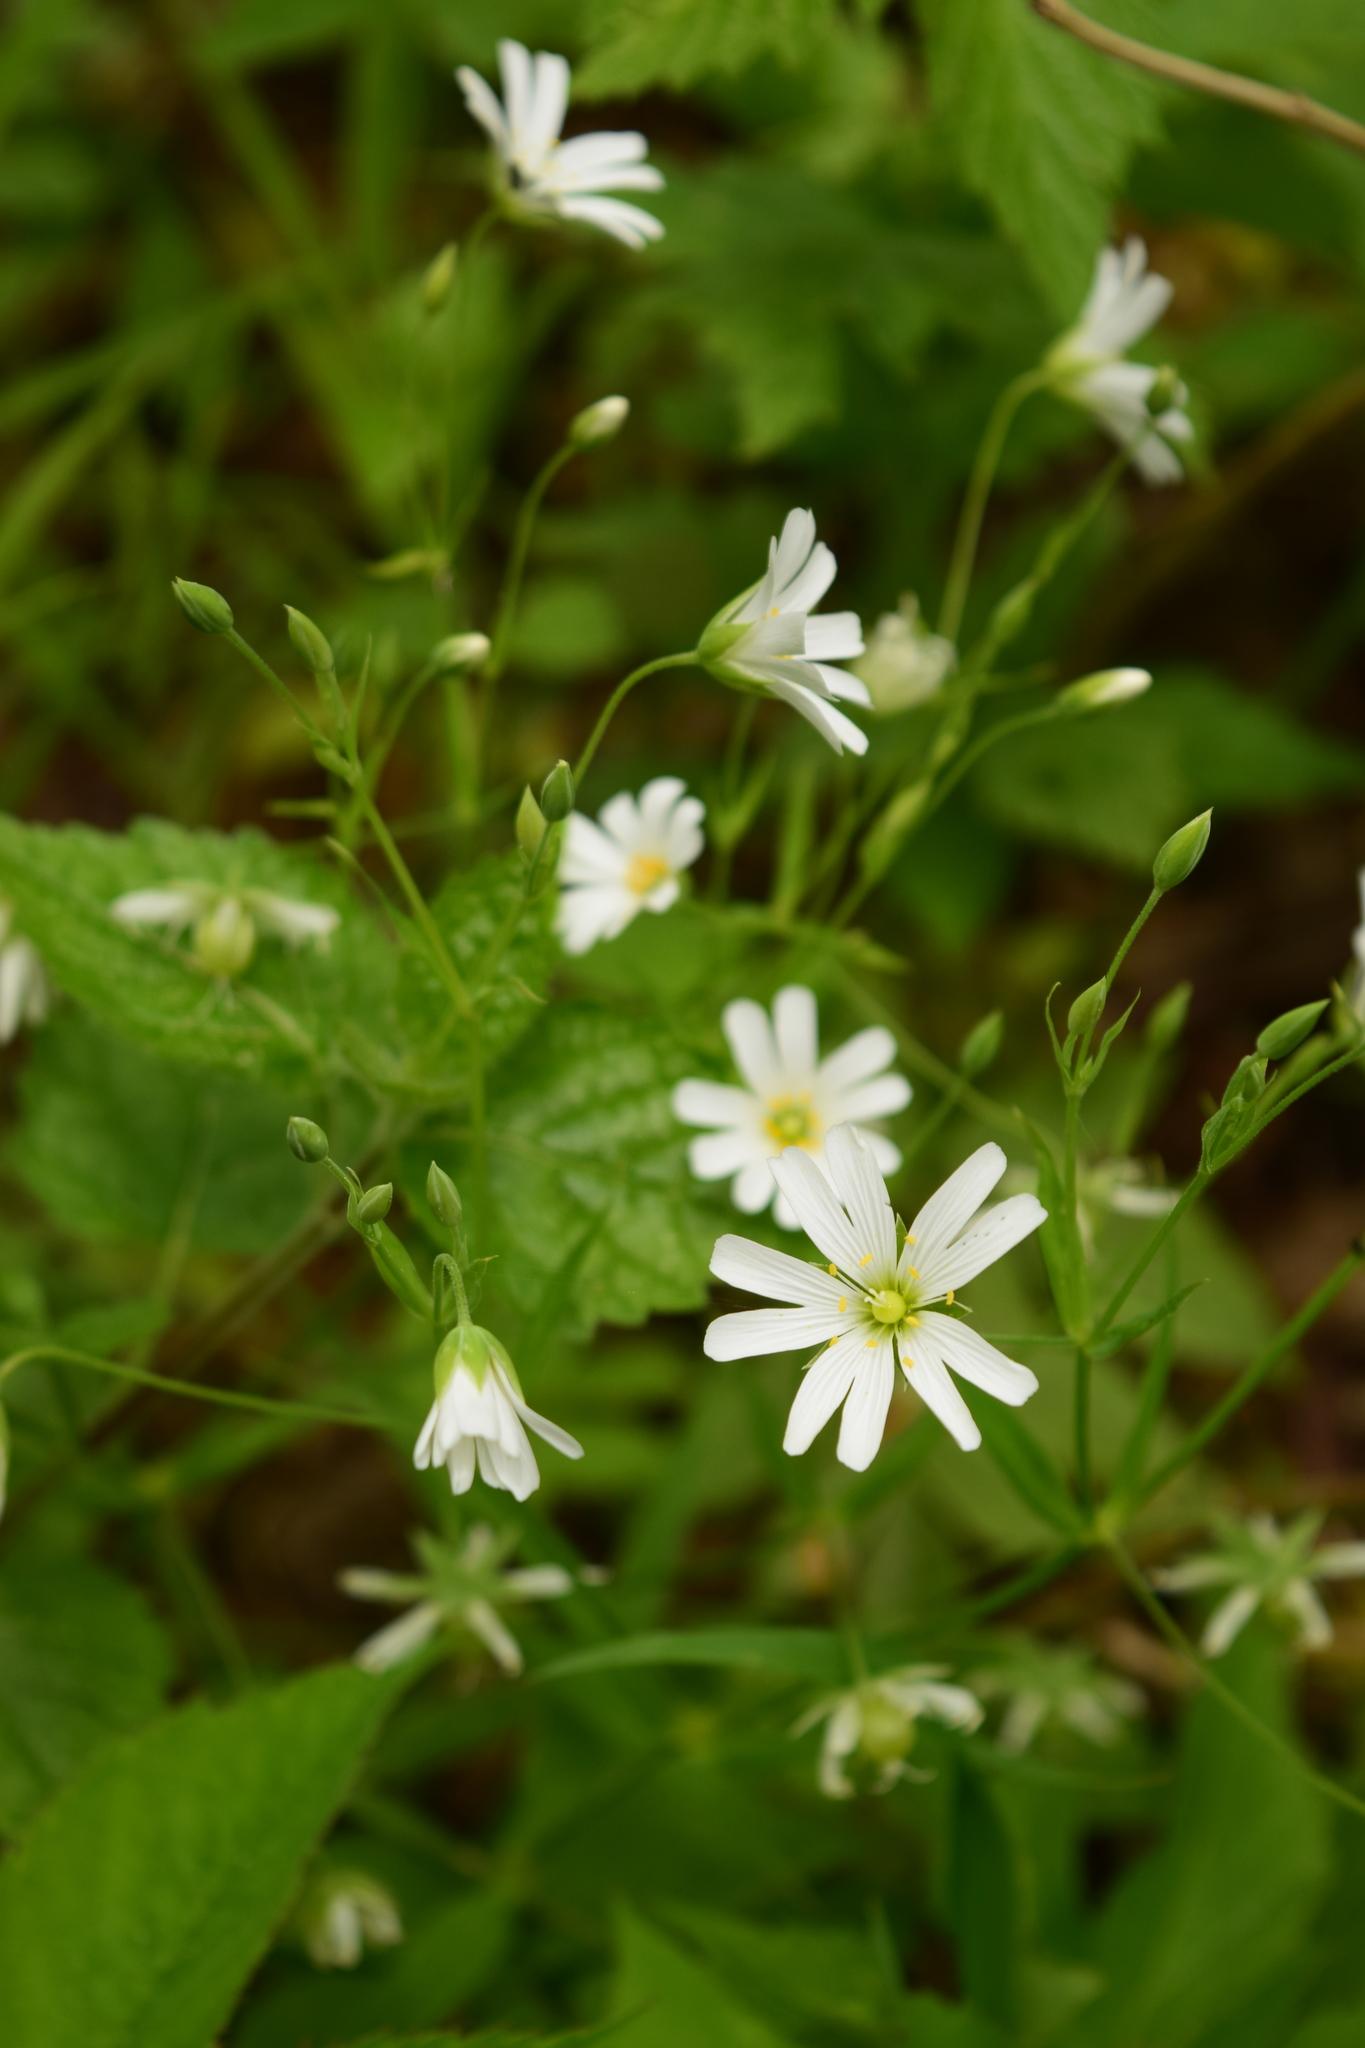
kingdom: Plantae
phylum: Tracheophyta
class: Magnoliopsida
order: Caryophyllales
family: Caryophyllaceae
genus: Rabelera
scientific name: Rabelera holostea
